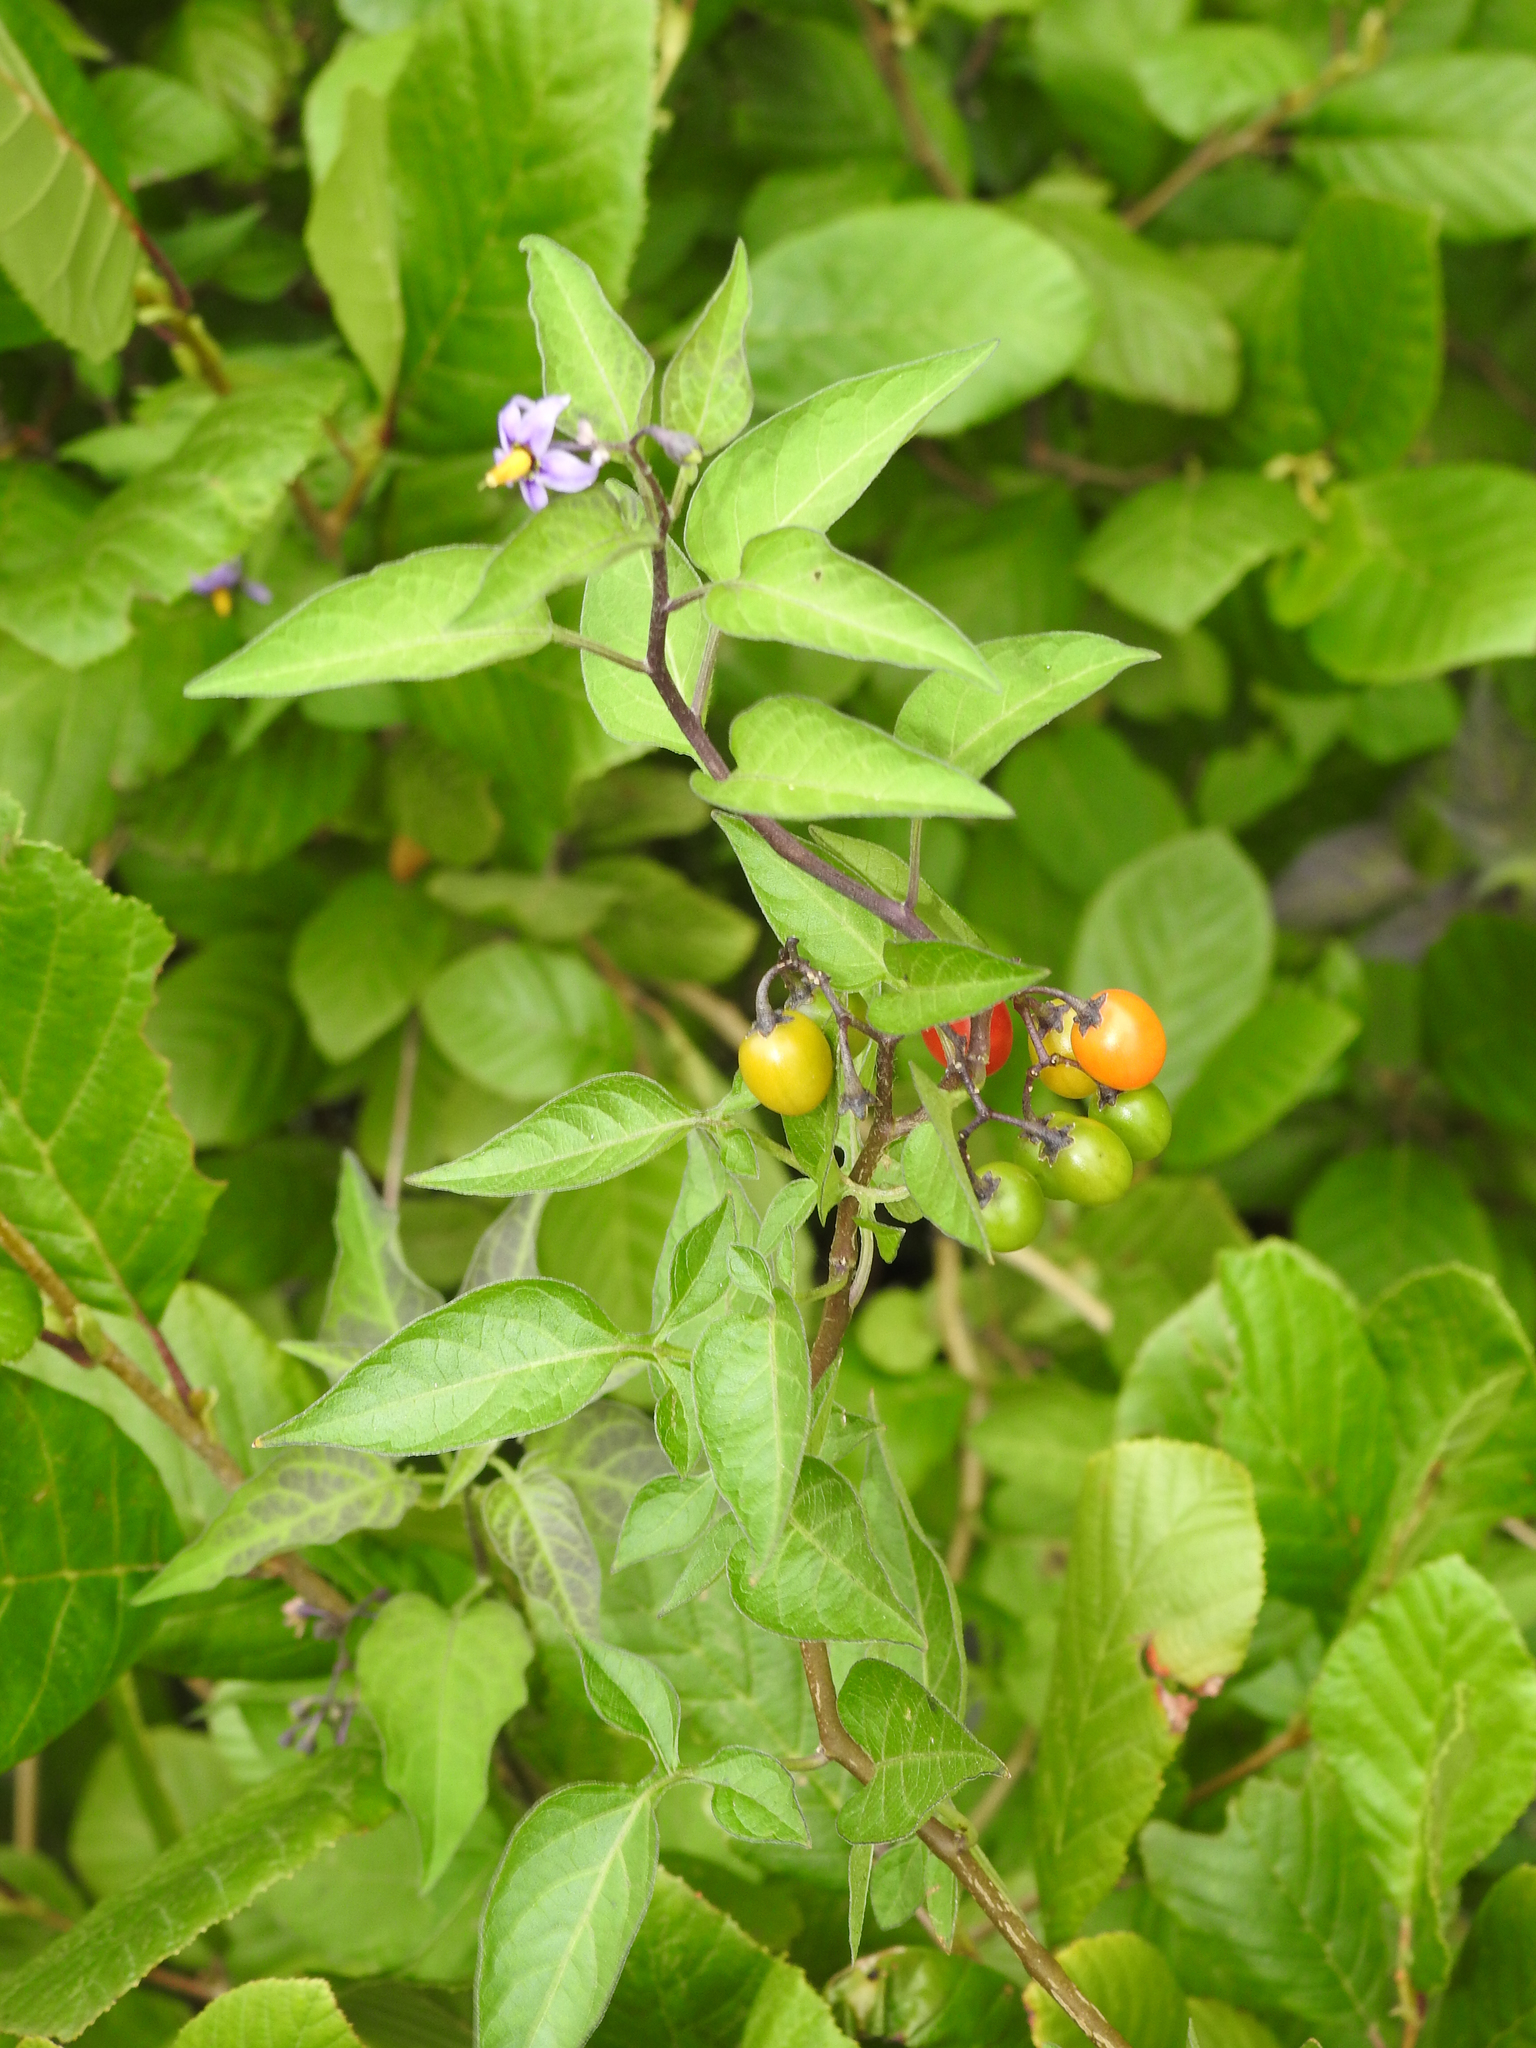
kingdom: Plantae
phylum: Tracheophyta
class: Magnoliopsida
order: Solanales
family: Solanaceae
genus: Solanum
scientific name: Solanum dulcamara
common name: Climbing nightshade
